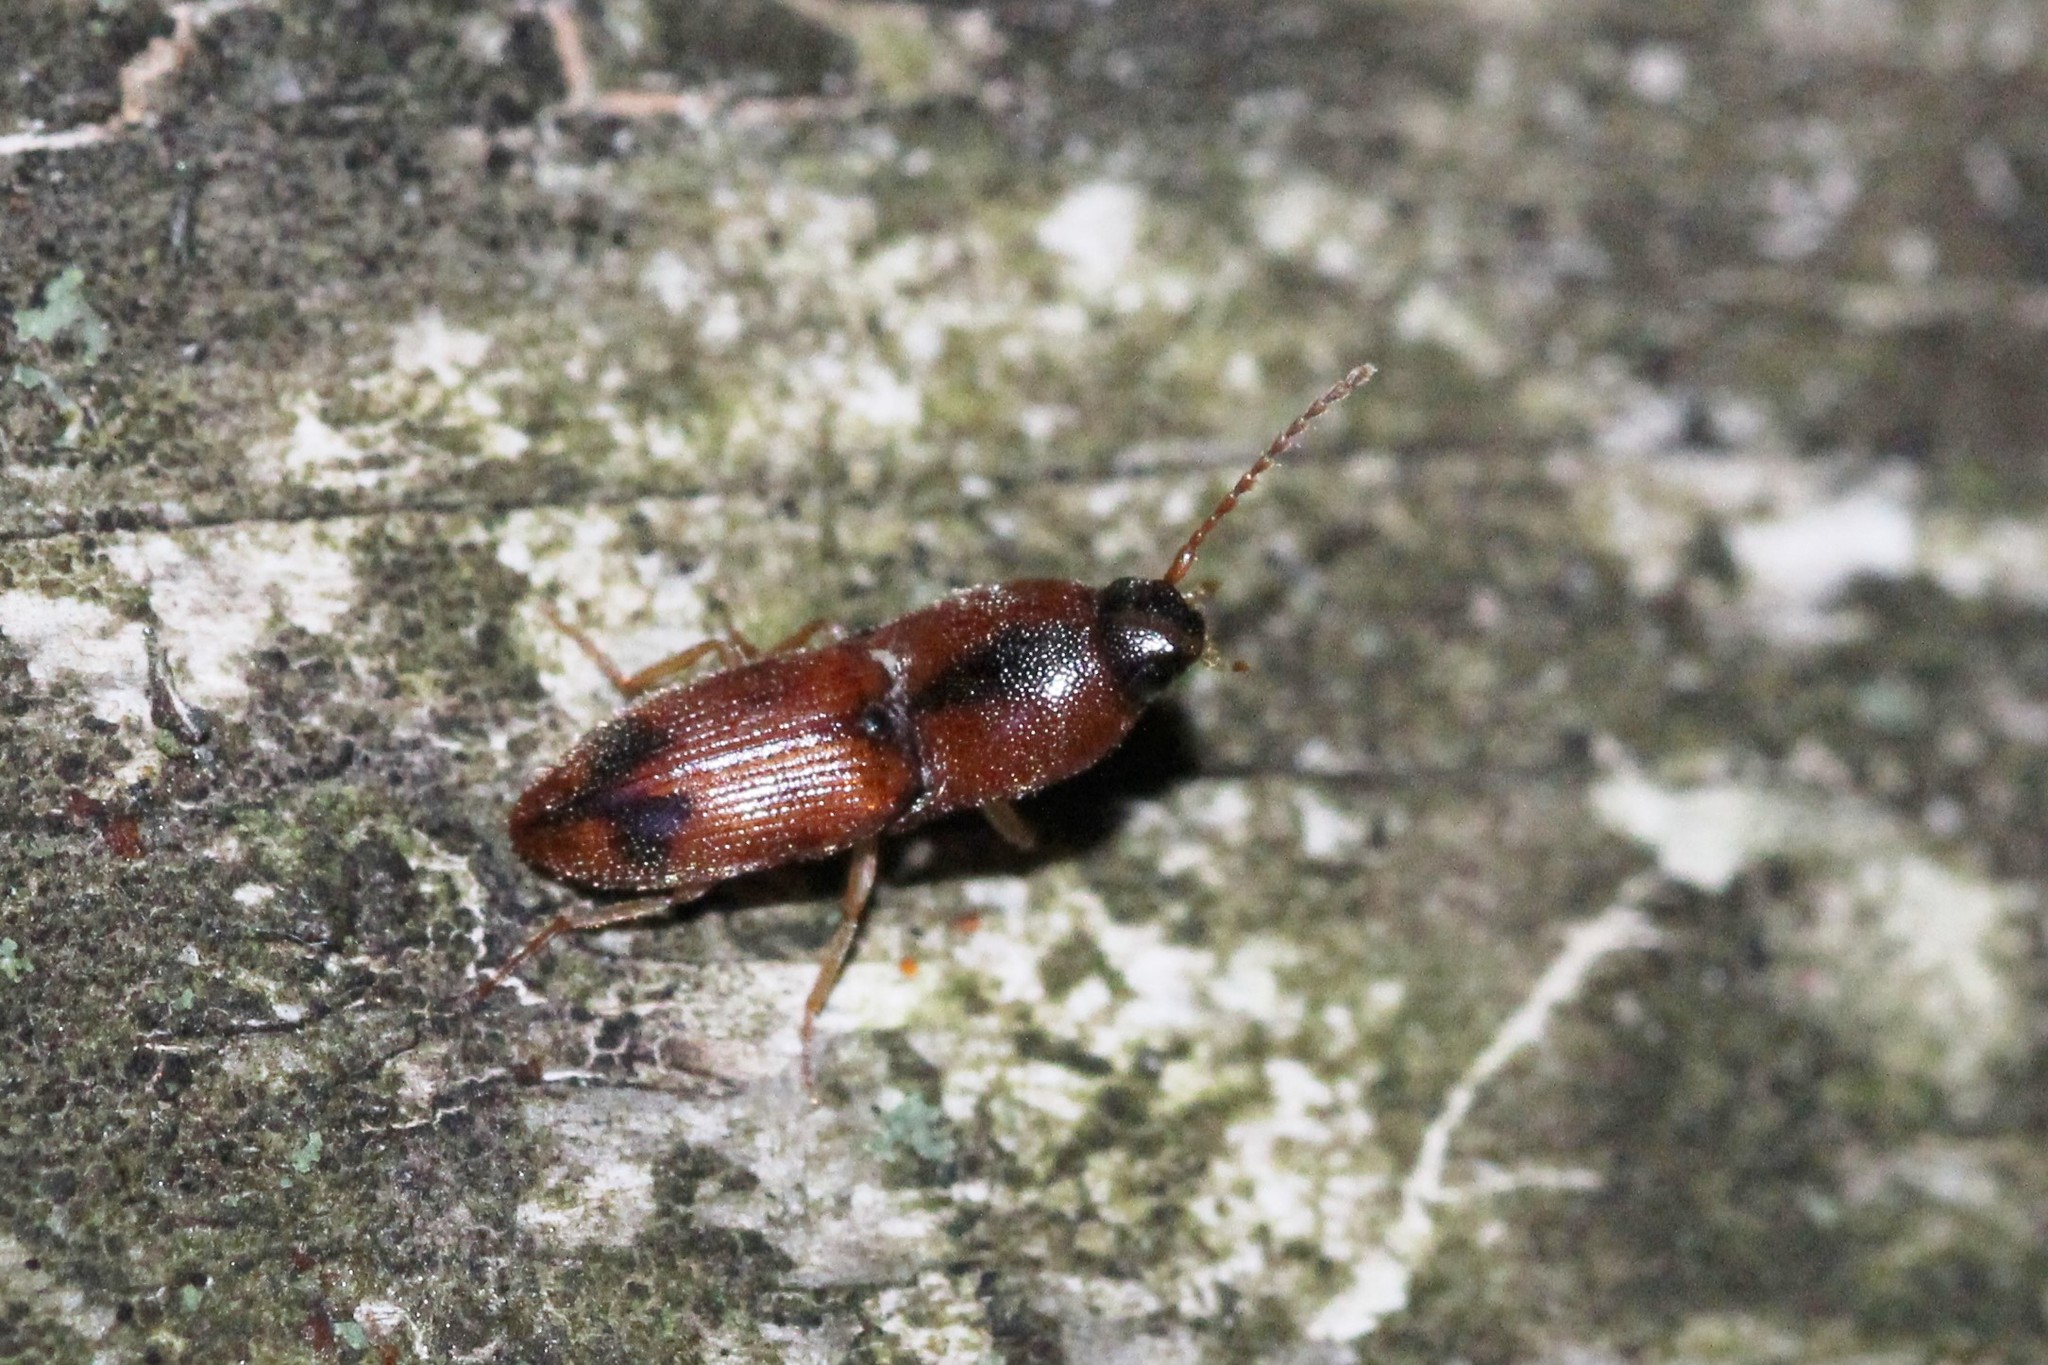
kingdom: Animalia
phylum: Arthropoda
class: Insecta
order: Coleoptera
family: Elateridae
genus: Aeolus
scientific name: Aeolus mellillus
